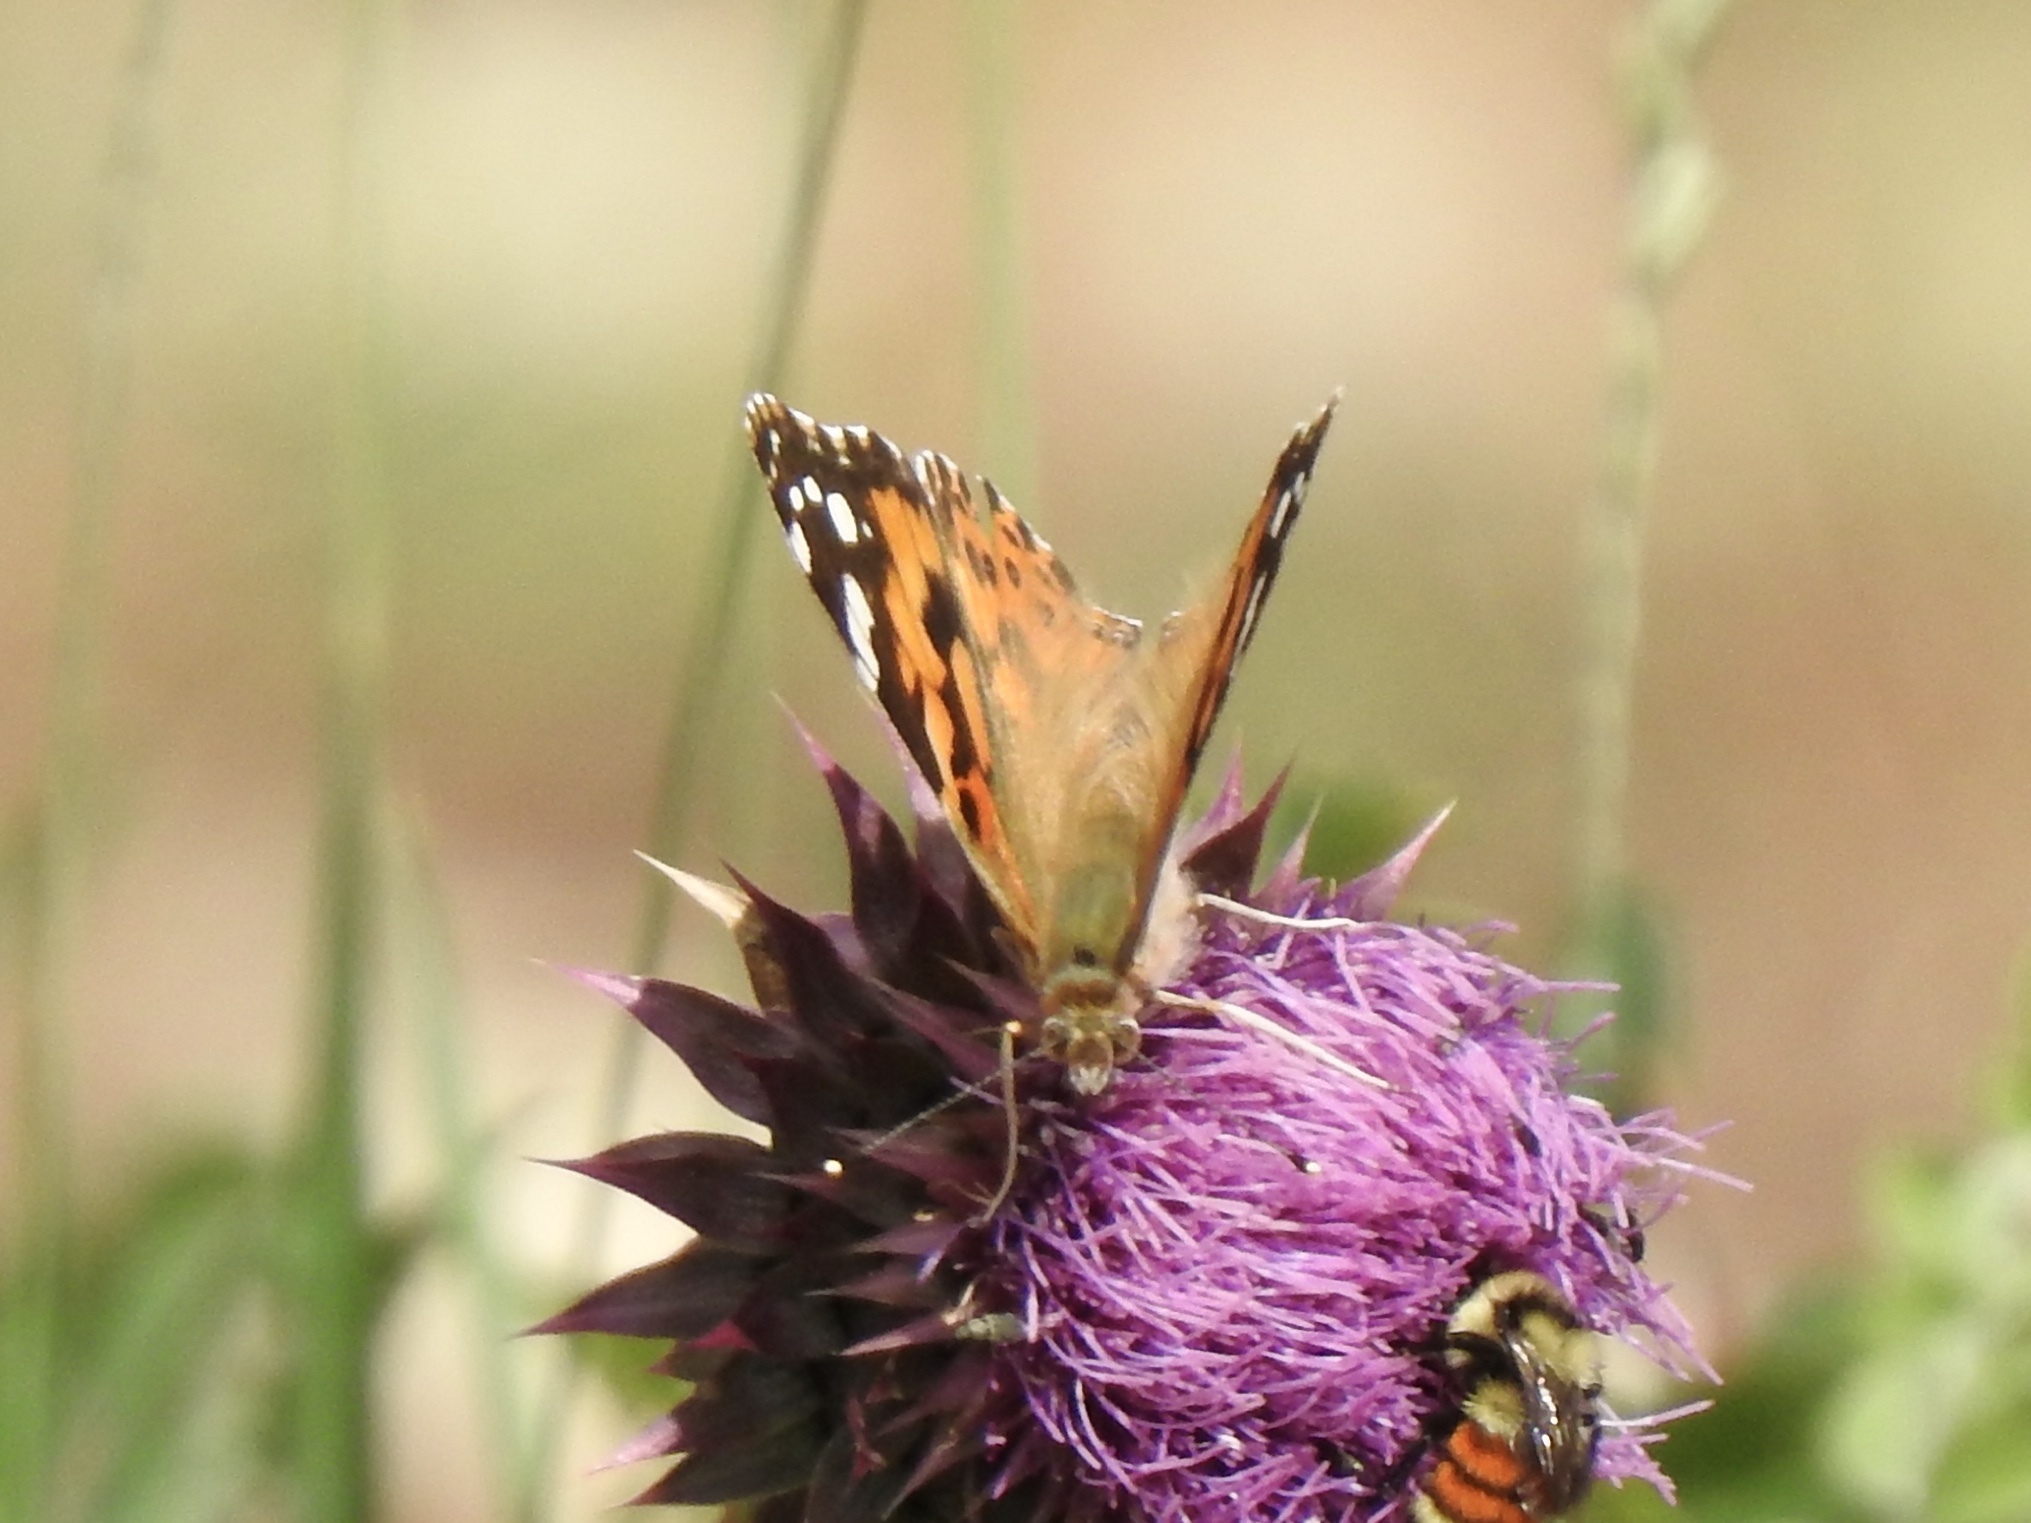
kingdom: Animalia
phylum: Arthropoda
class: Insecta
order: Lepidoptera
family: Nymphalidae
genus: Vanessa
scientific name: Vanessa cardui
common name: Painted lady
